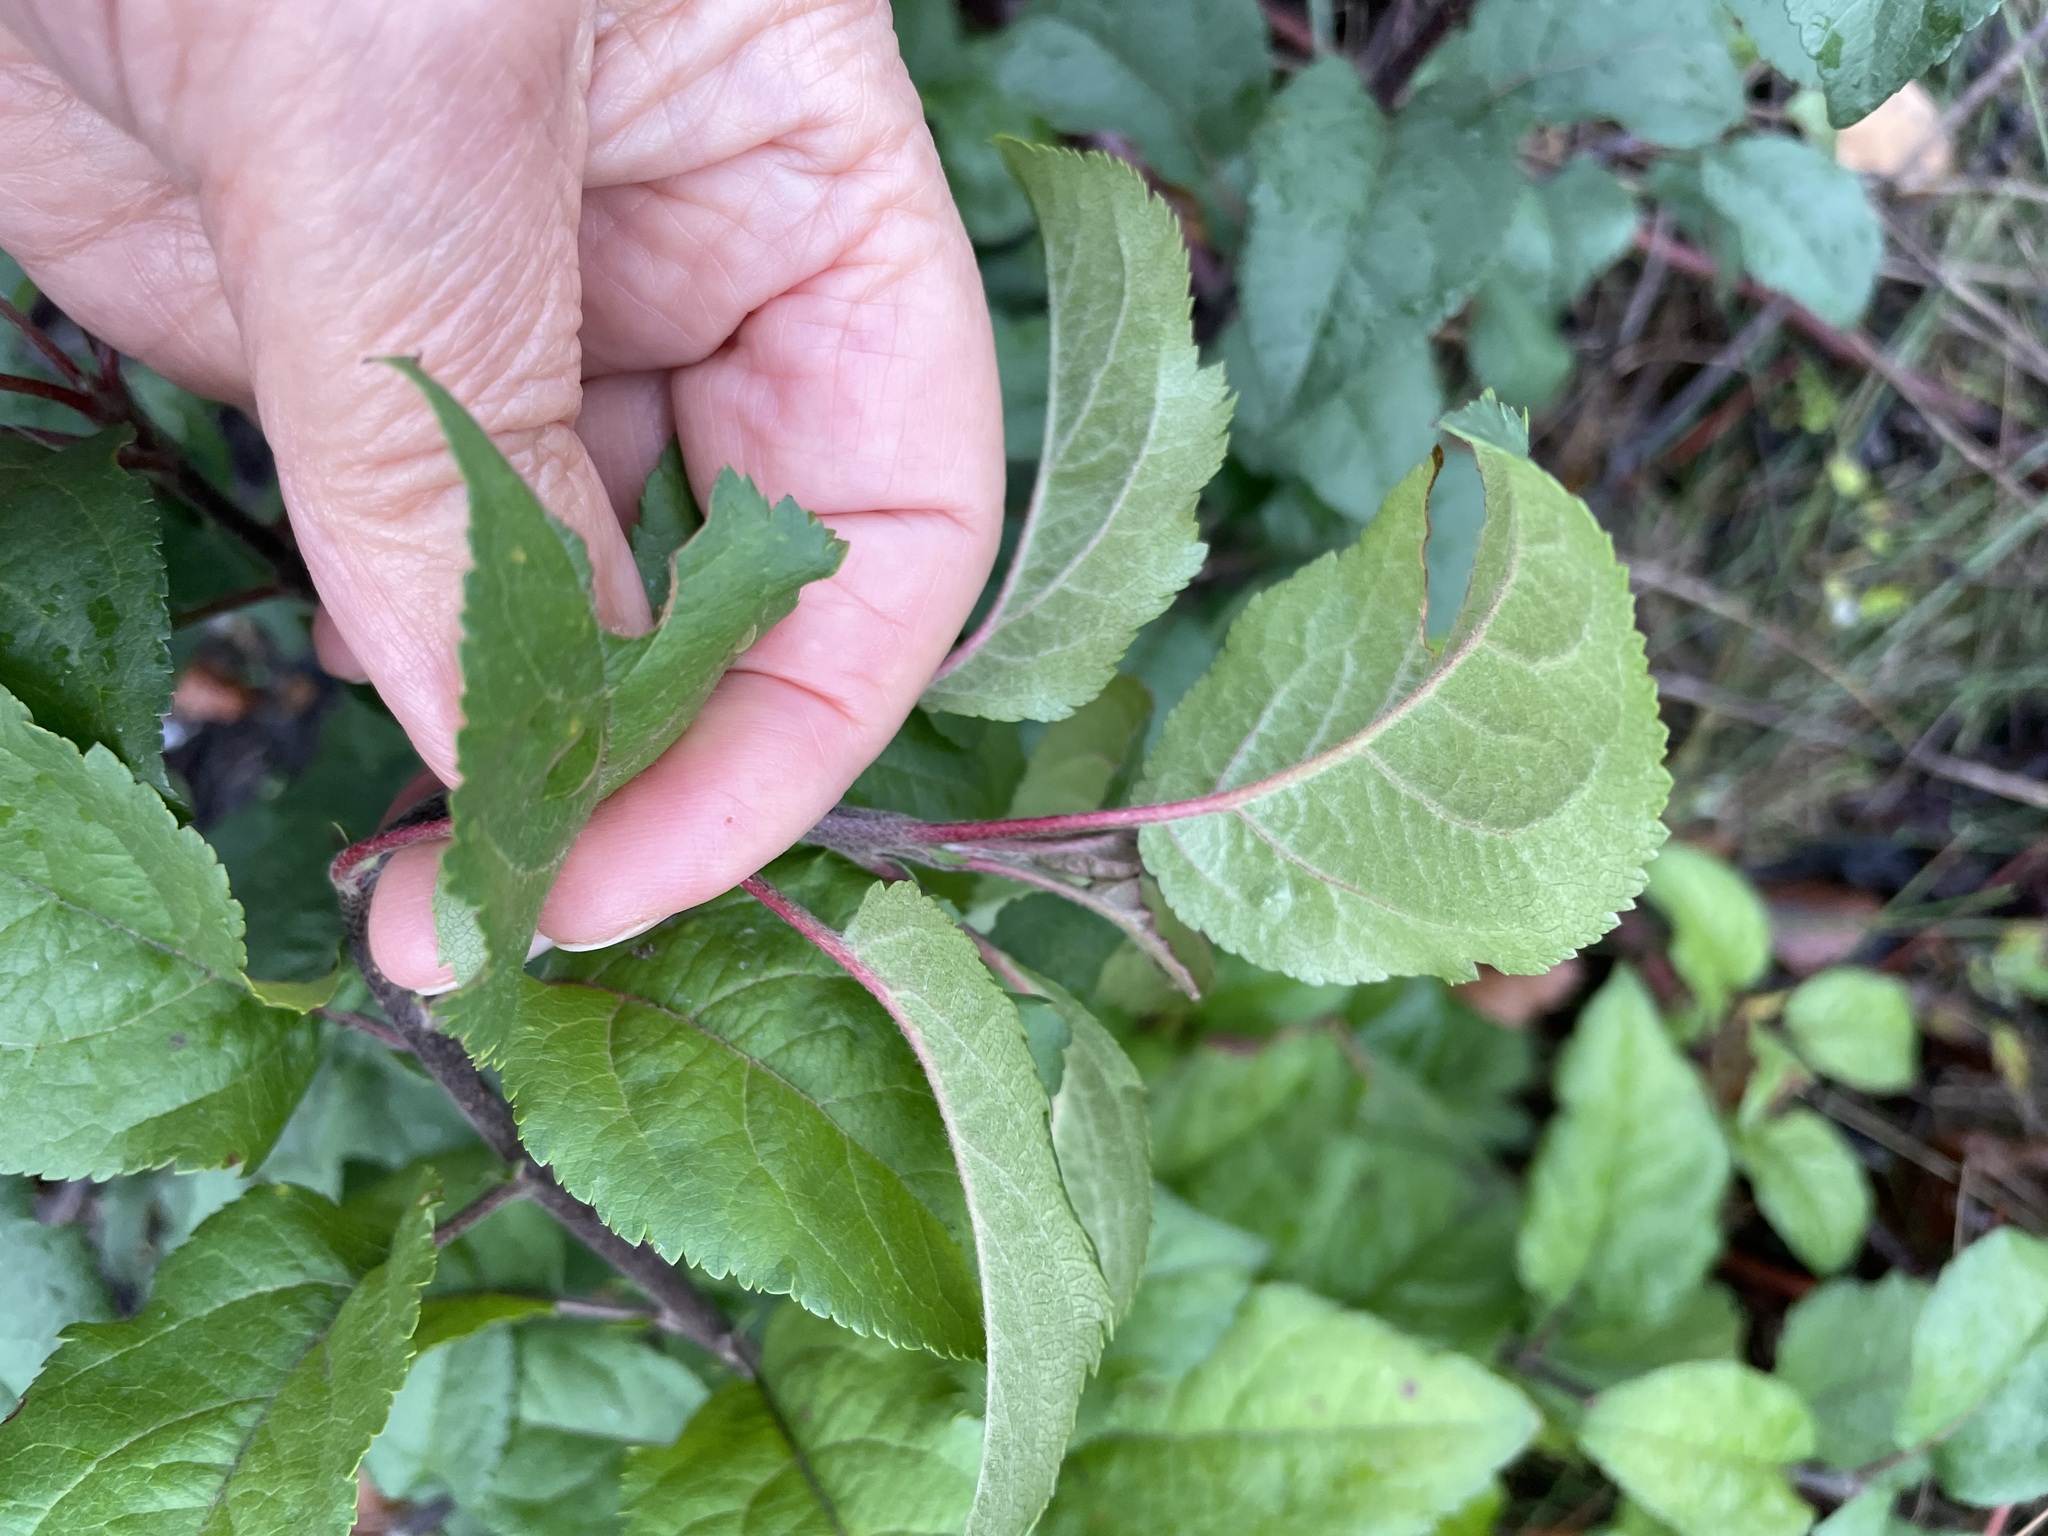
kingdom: Plantae
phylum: Tracheophyta
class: Magnoliopsida
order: Rosales
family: Rosaceae
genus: Malus
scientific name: Malus domestica
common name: Apple
